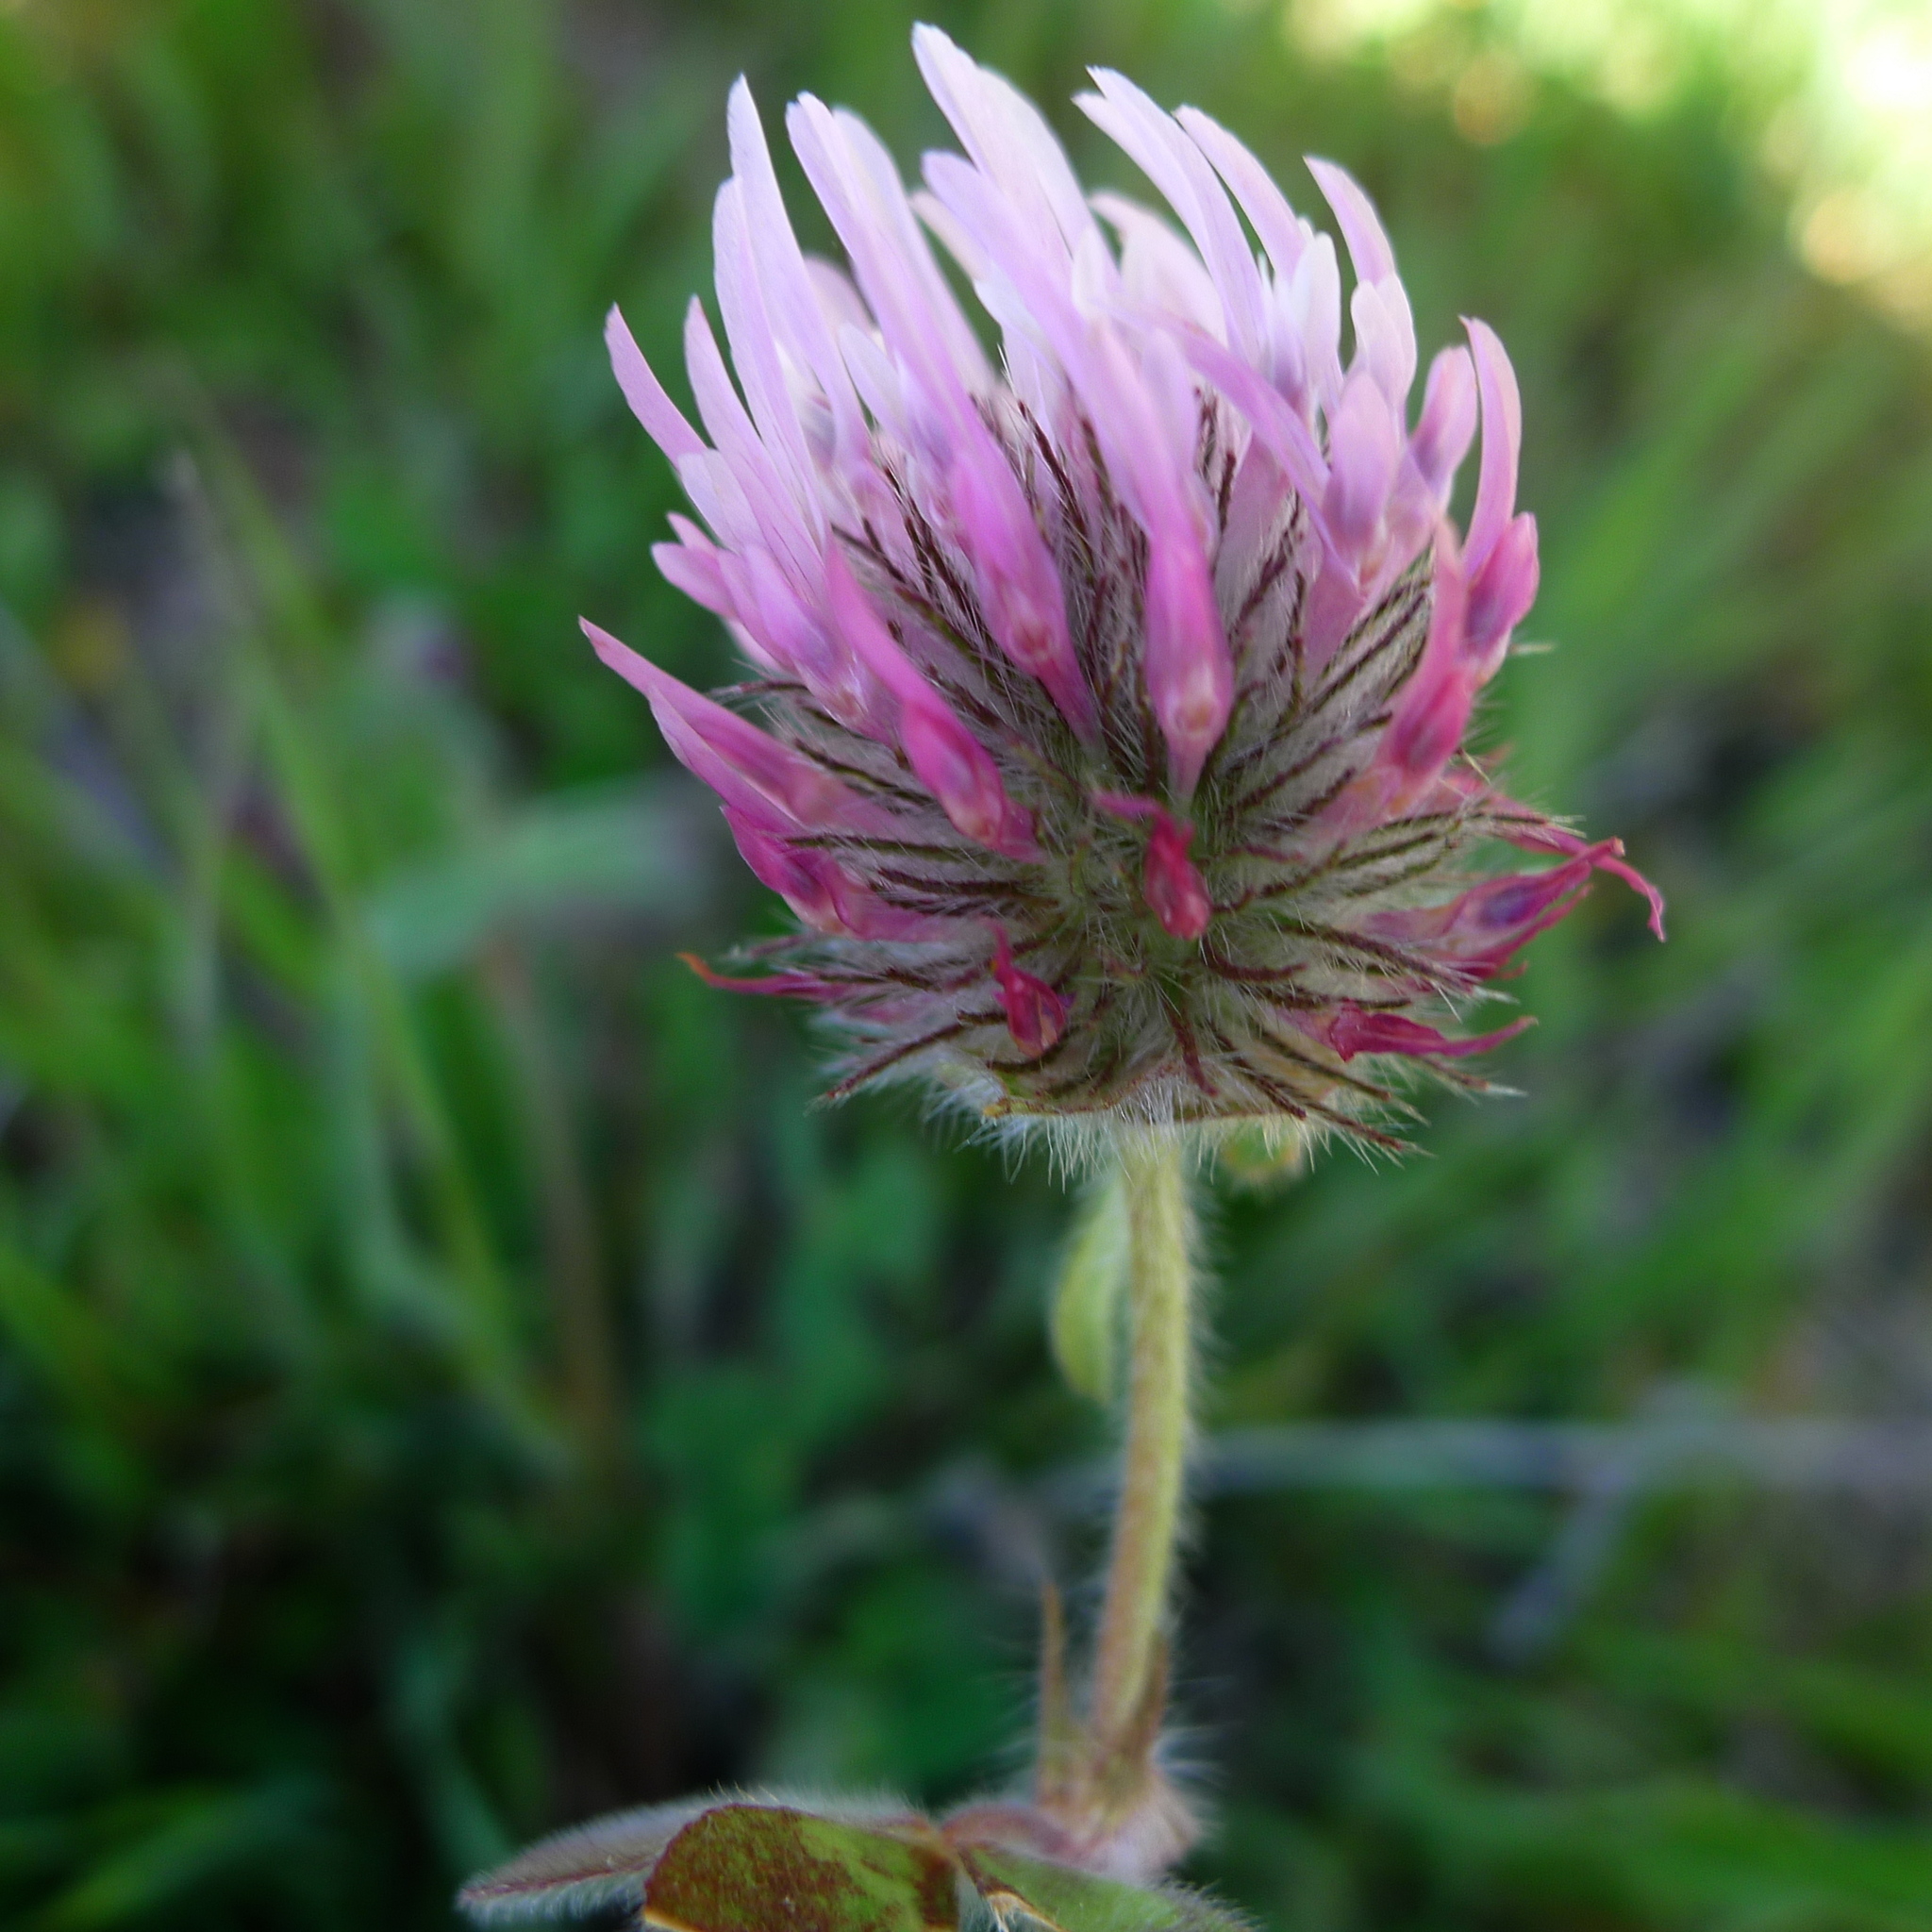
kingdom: Plantae
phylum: Tracheophyta
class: Magnoliopsida
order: Fabales
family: Fabaceae
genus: Trifolium
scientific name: Trifolium hirtum
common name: Rose clover
